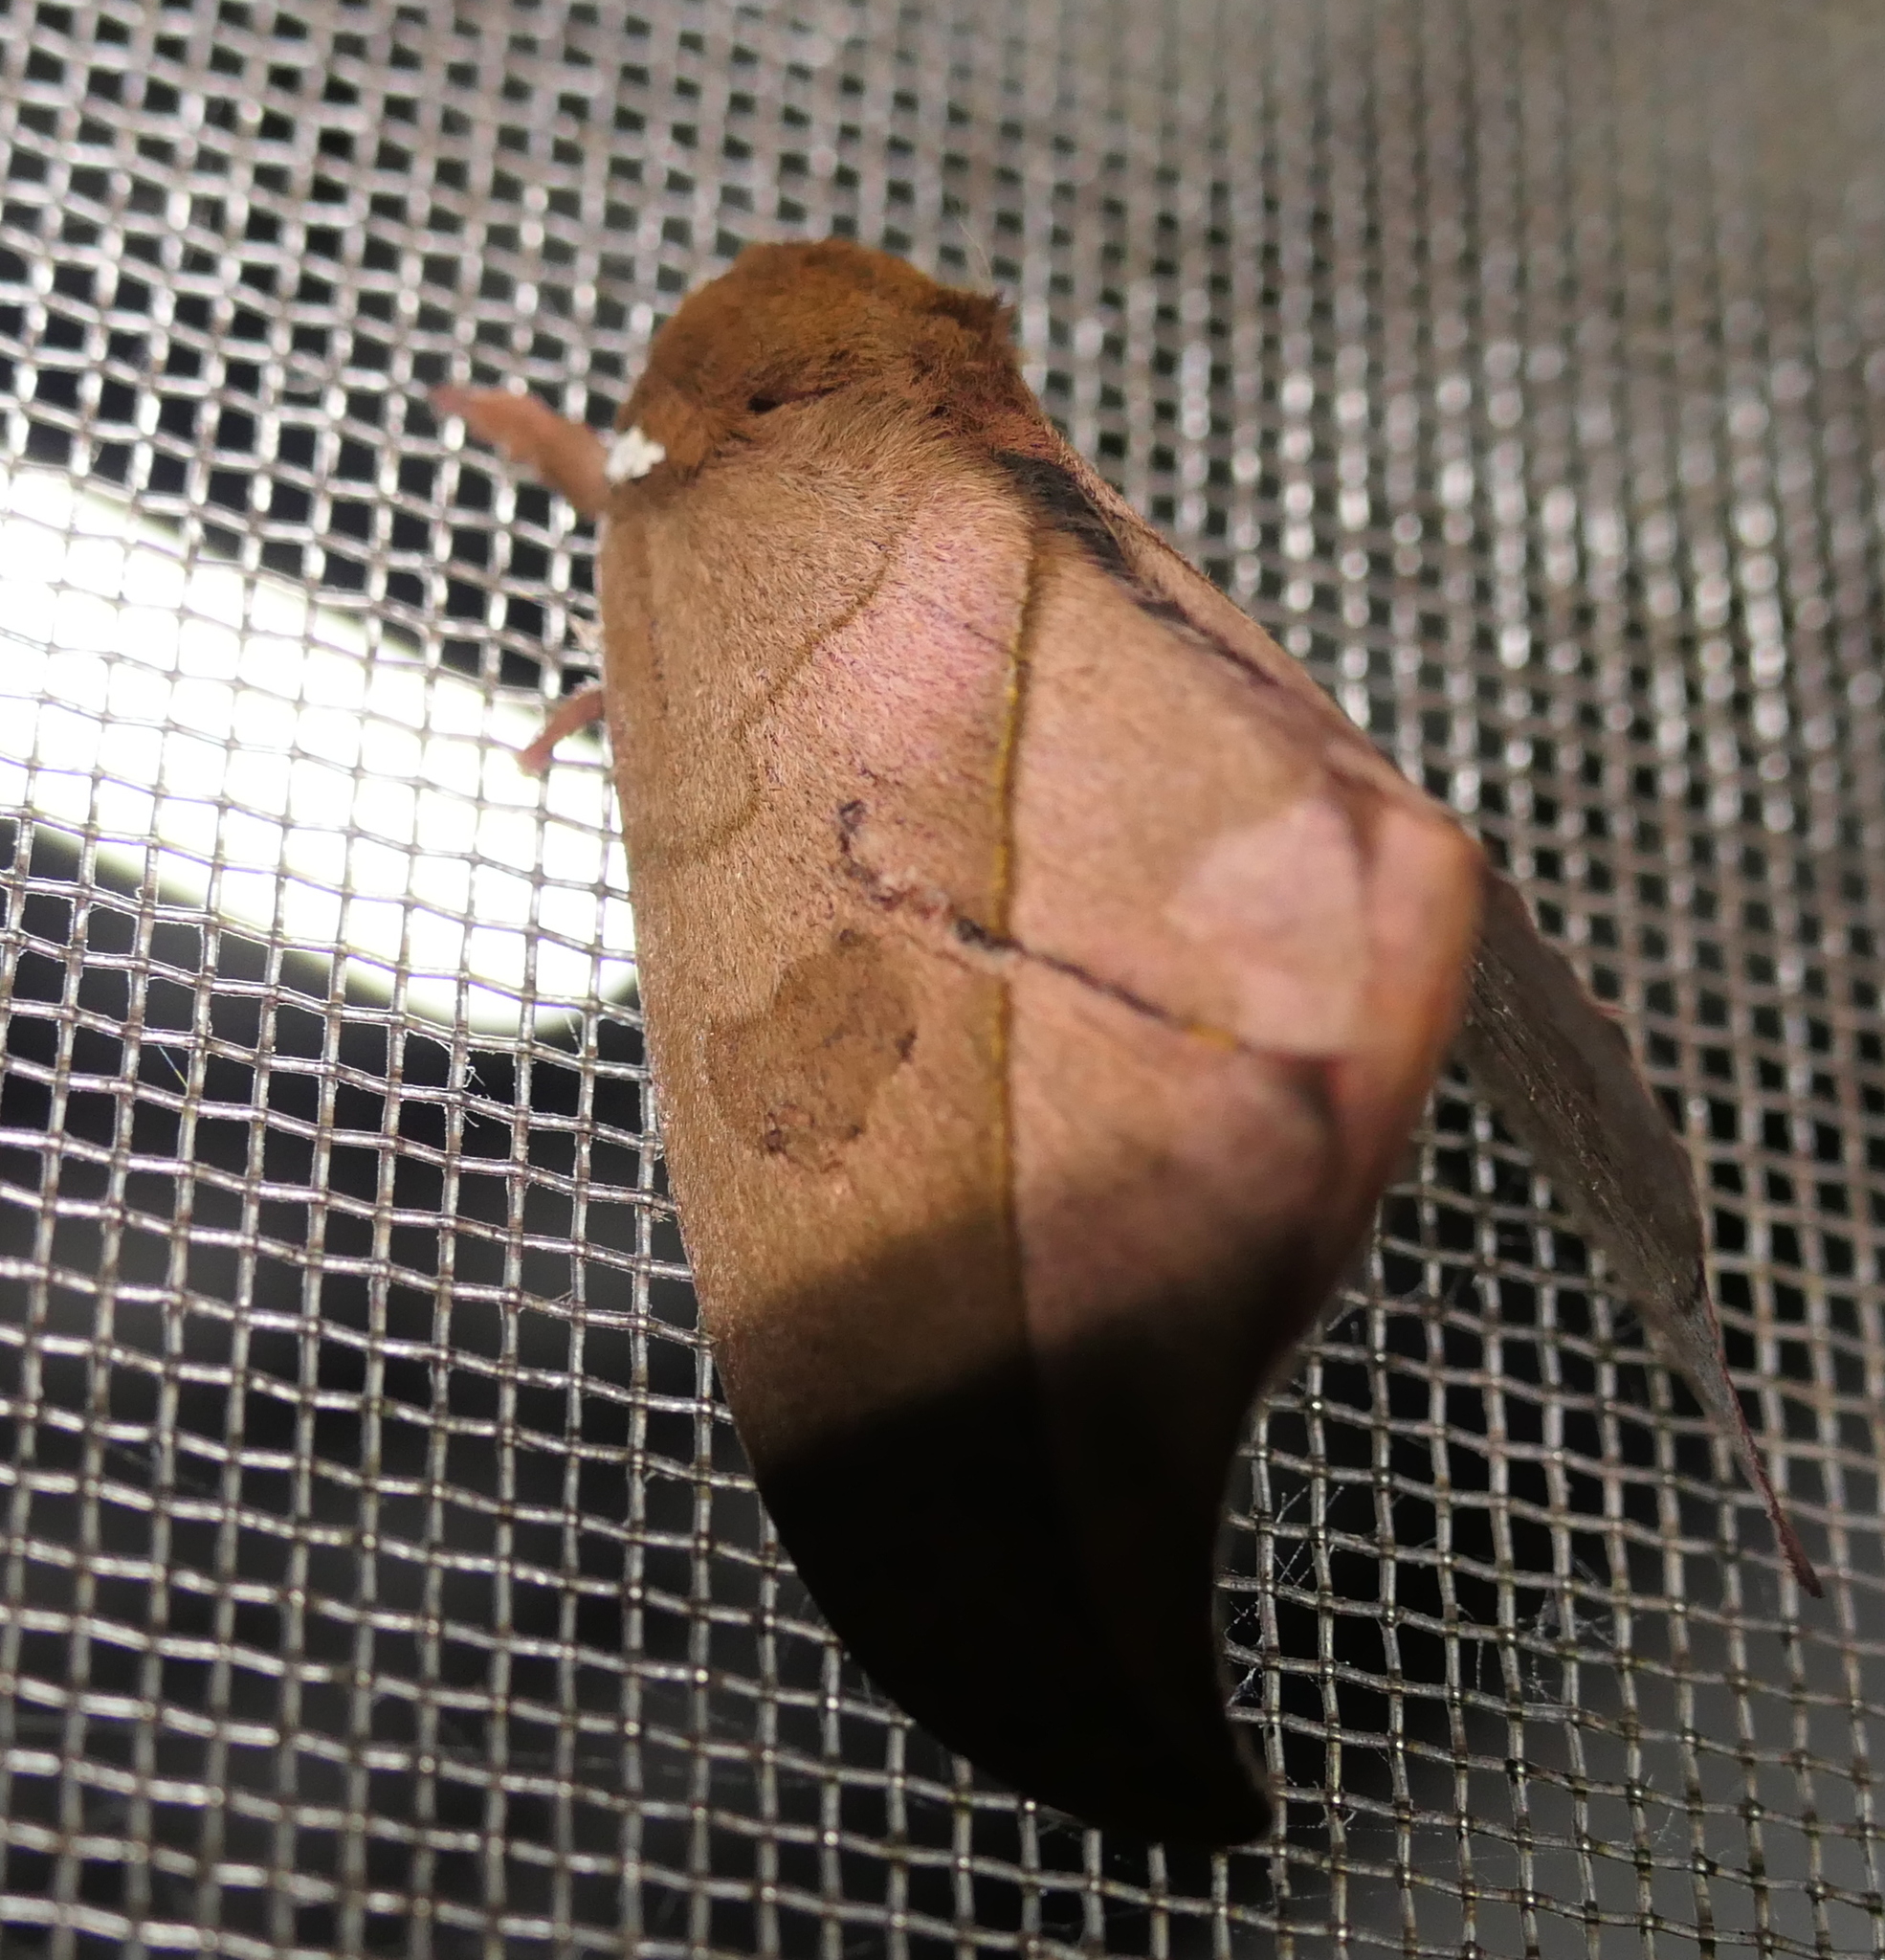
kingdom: Animalia
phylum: Arthropoda
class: Insecta
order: Lepidoptera
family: Saturniidae
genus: Automeris
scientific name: Automeris melanops
